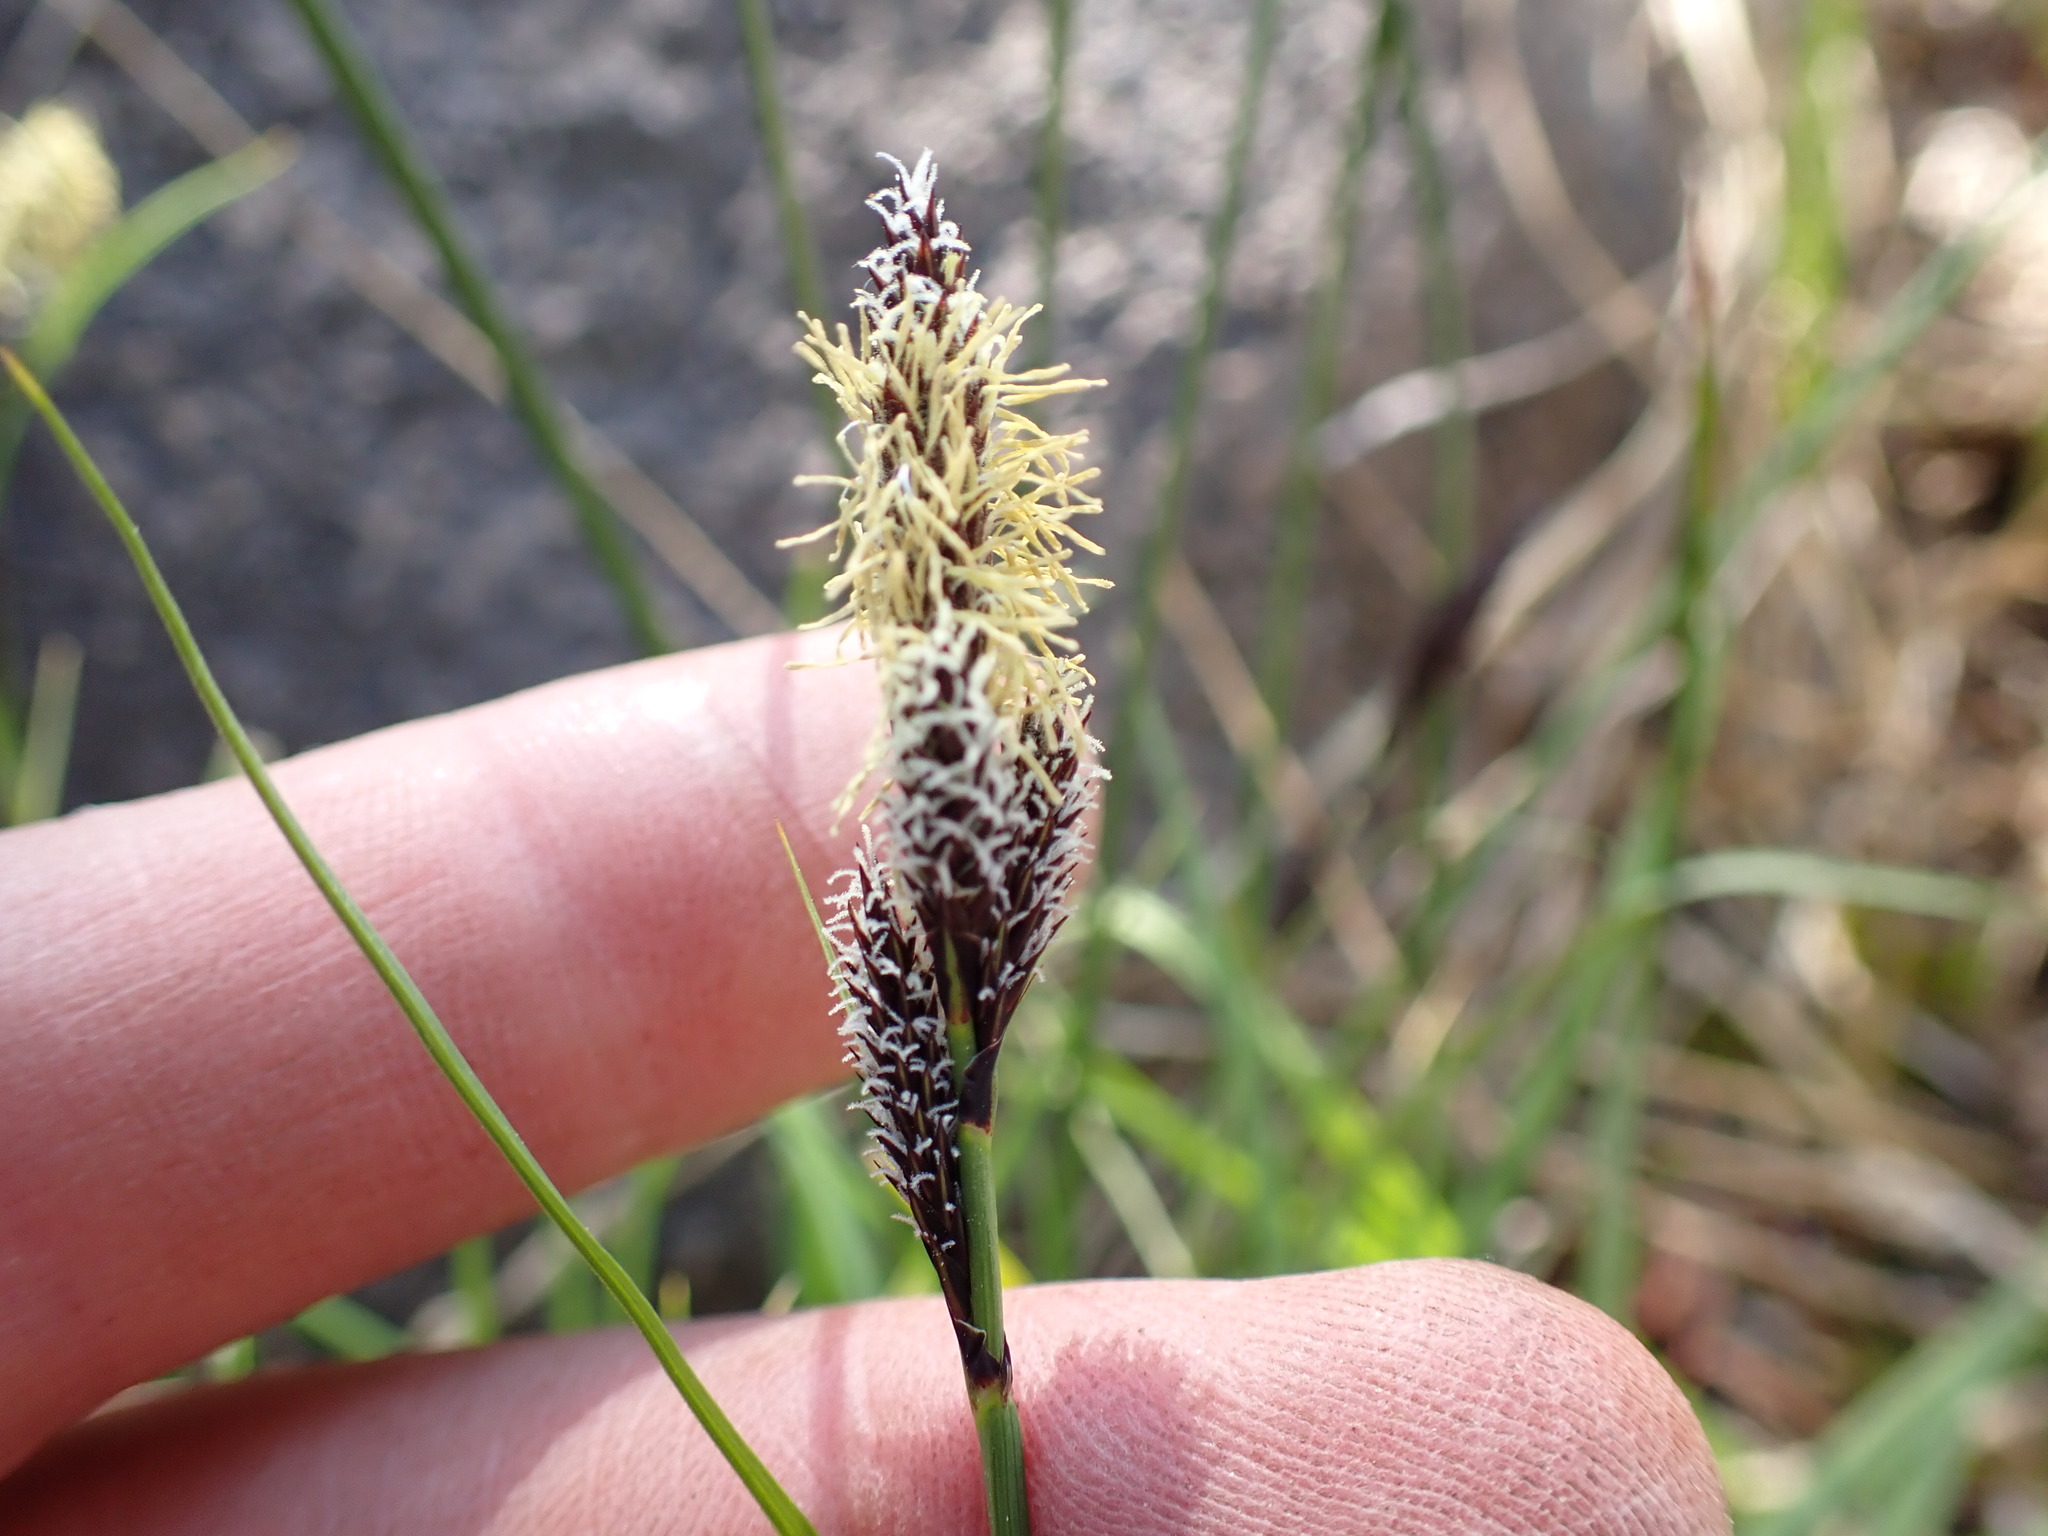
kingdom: Plantae
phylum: Tracheophyta
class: Liliopsida
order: Poales
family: Cyperaceae
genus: Carex
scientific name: Carex heteroneura
